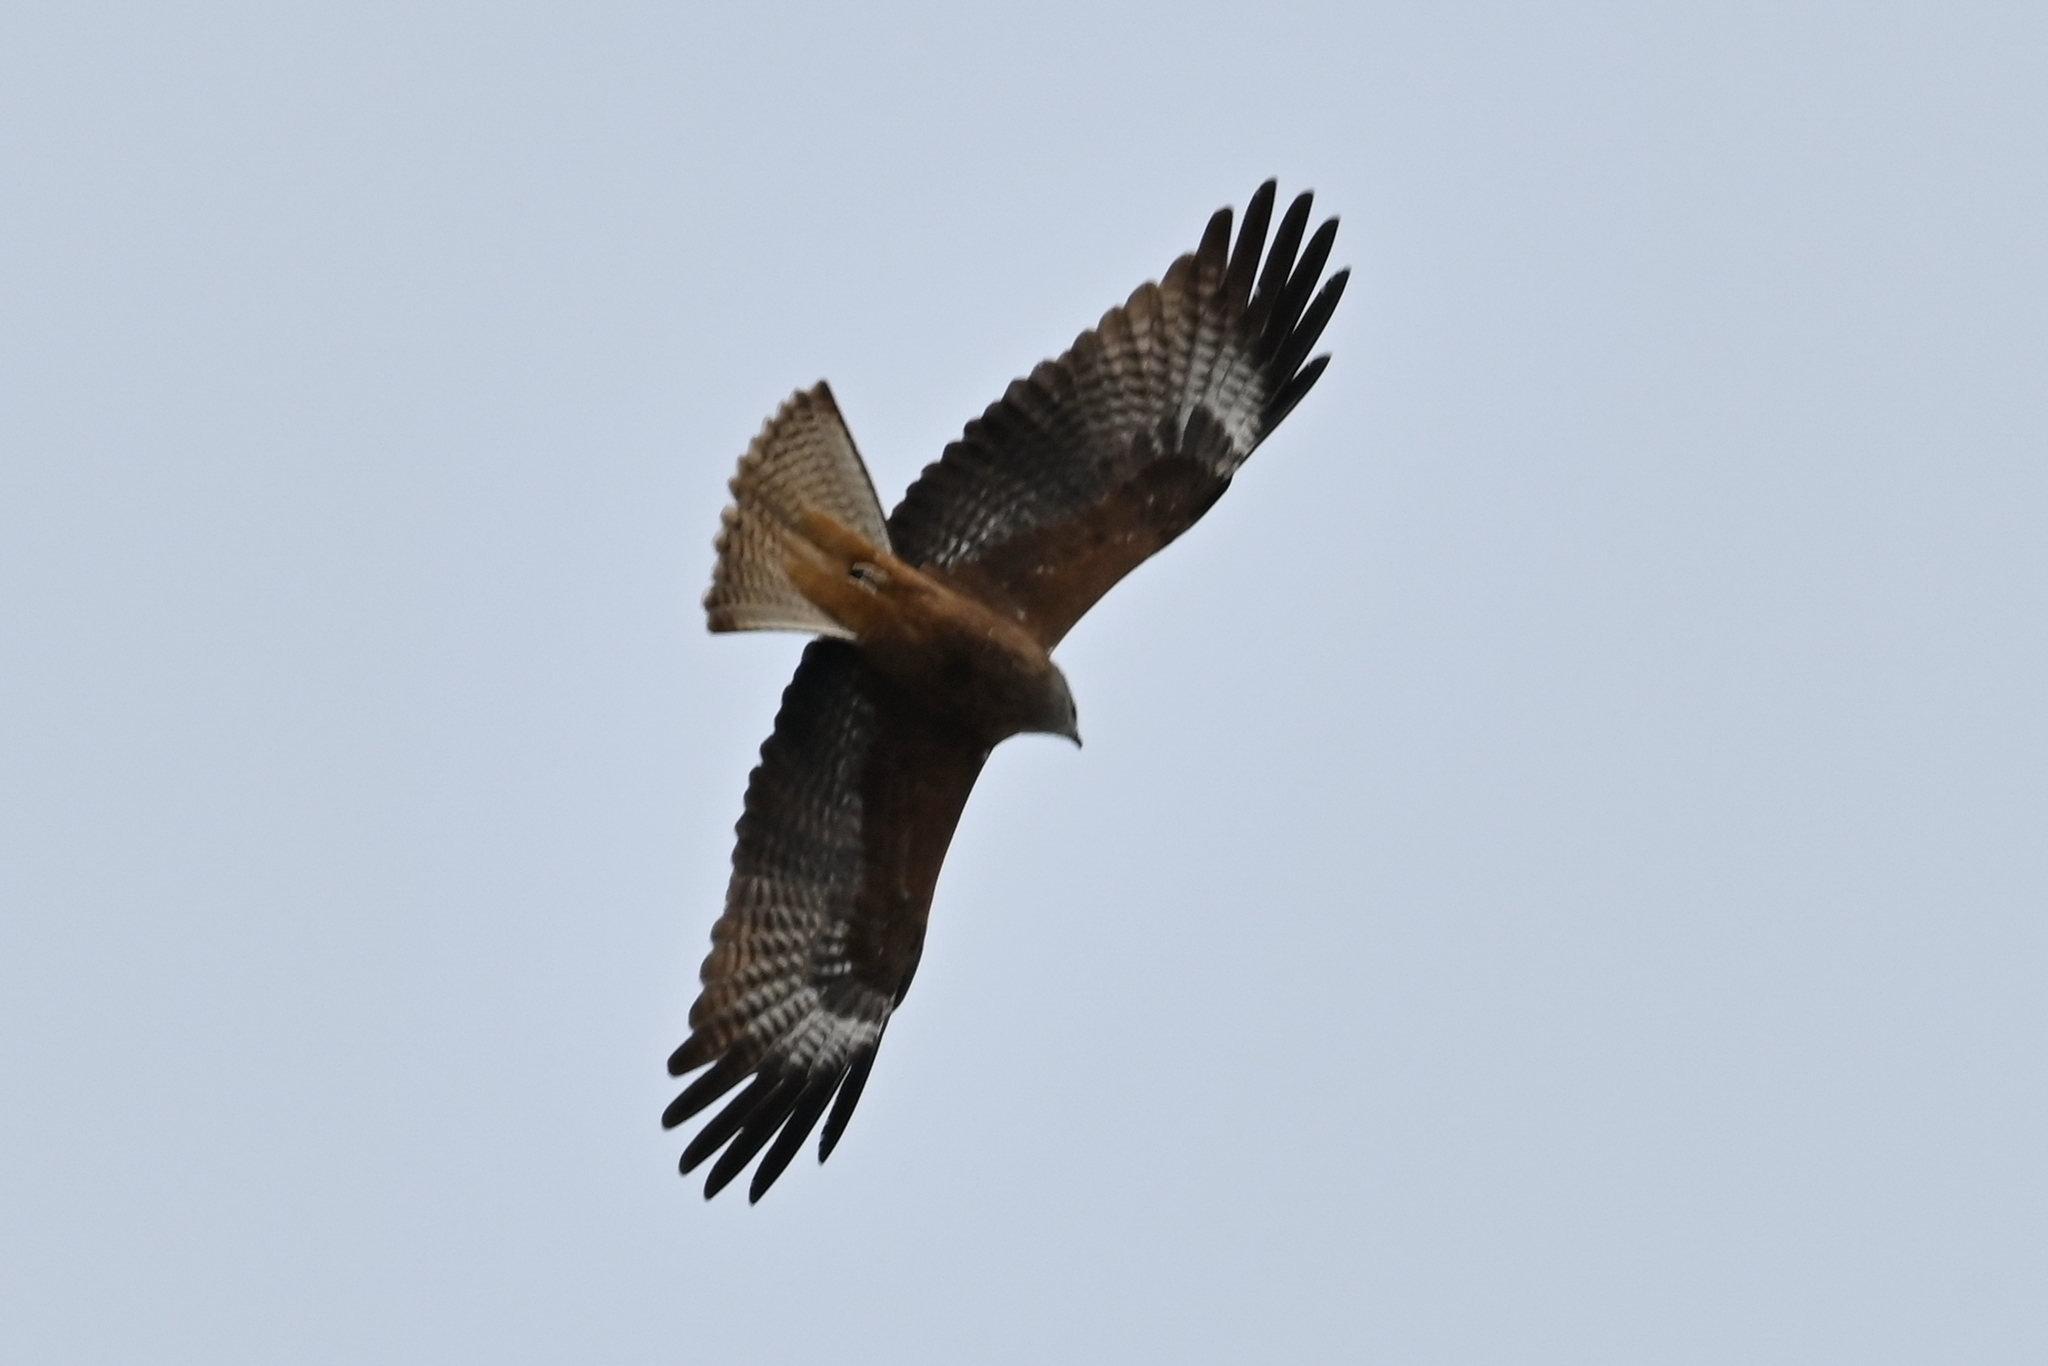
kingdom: Animalia
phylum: Chordata
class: Aves
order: Accipitriformes
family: Accipitridae
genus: Milvus
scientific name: Milvus migrans
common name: Black kite
